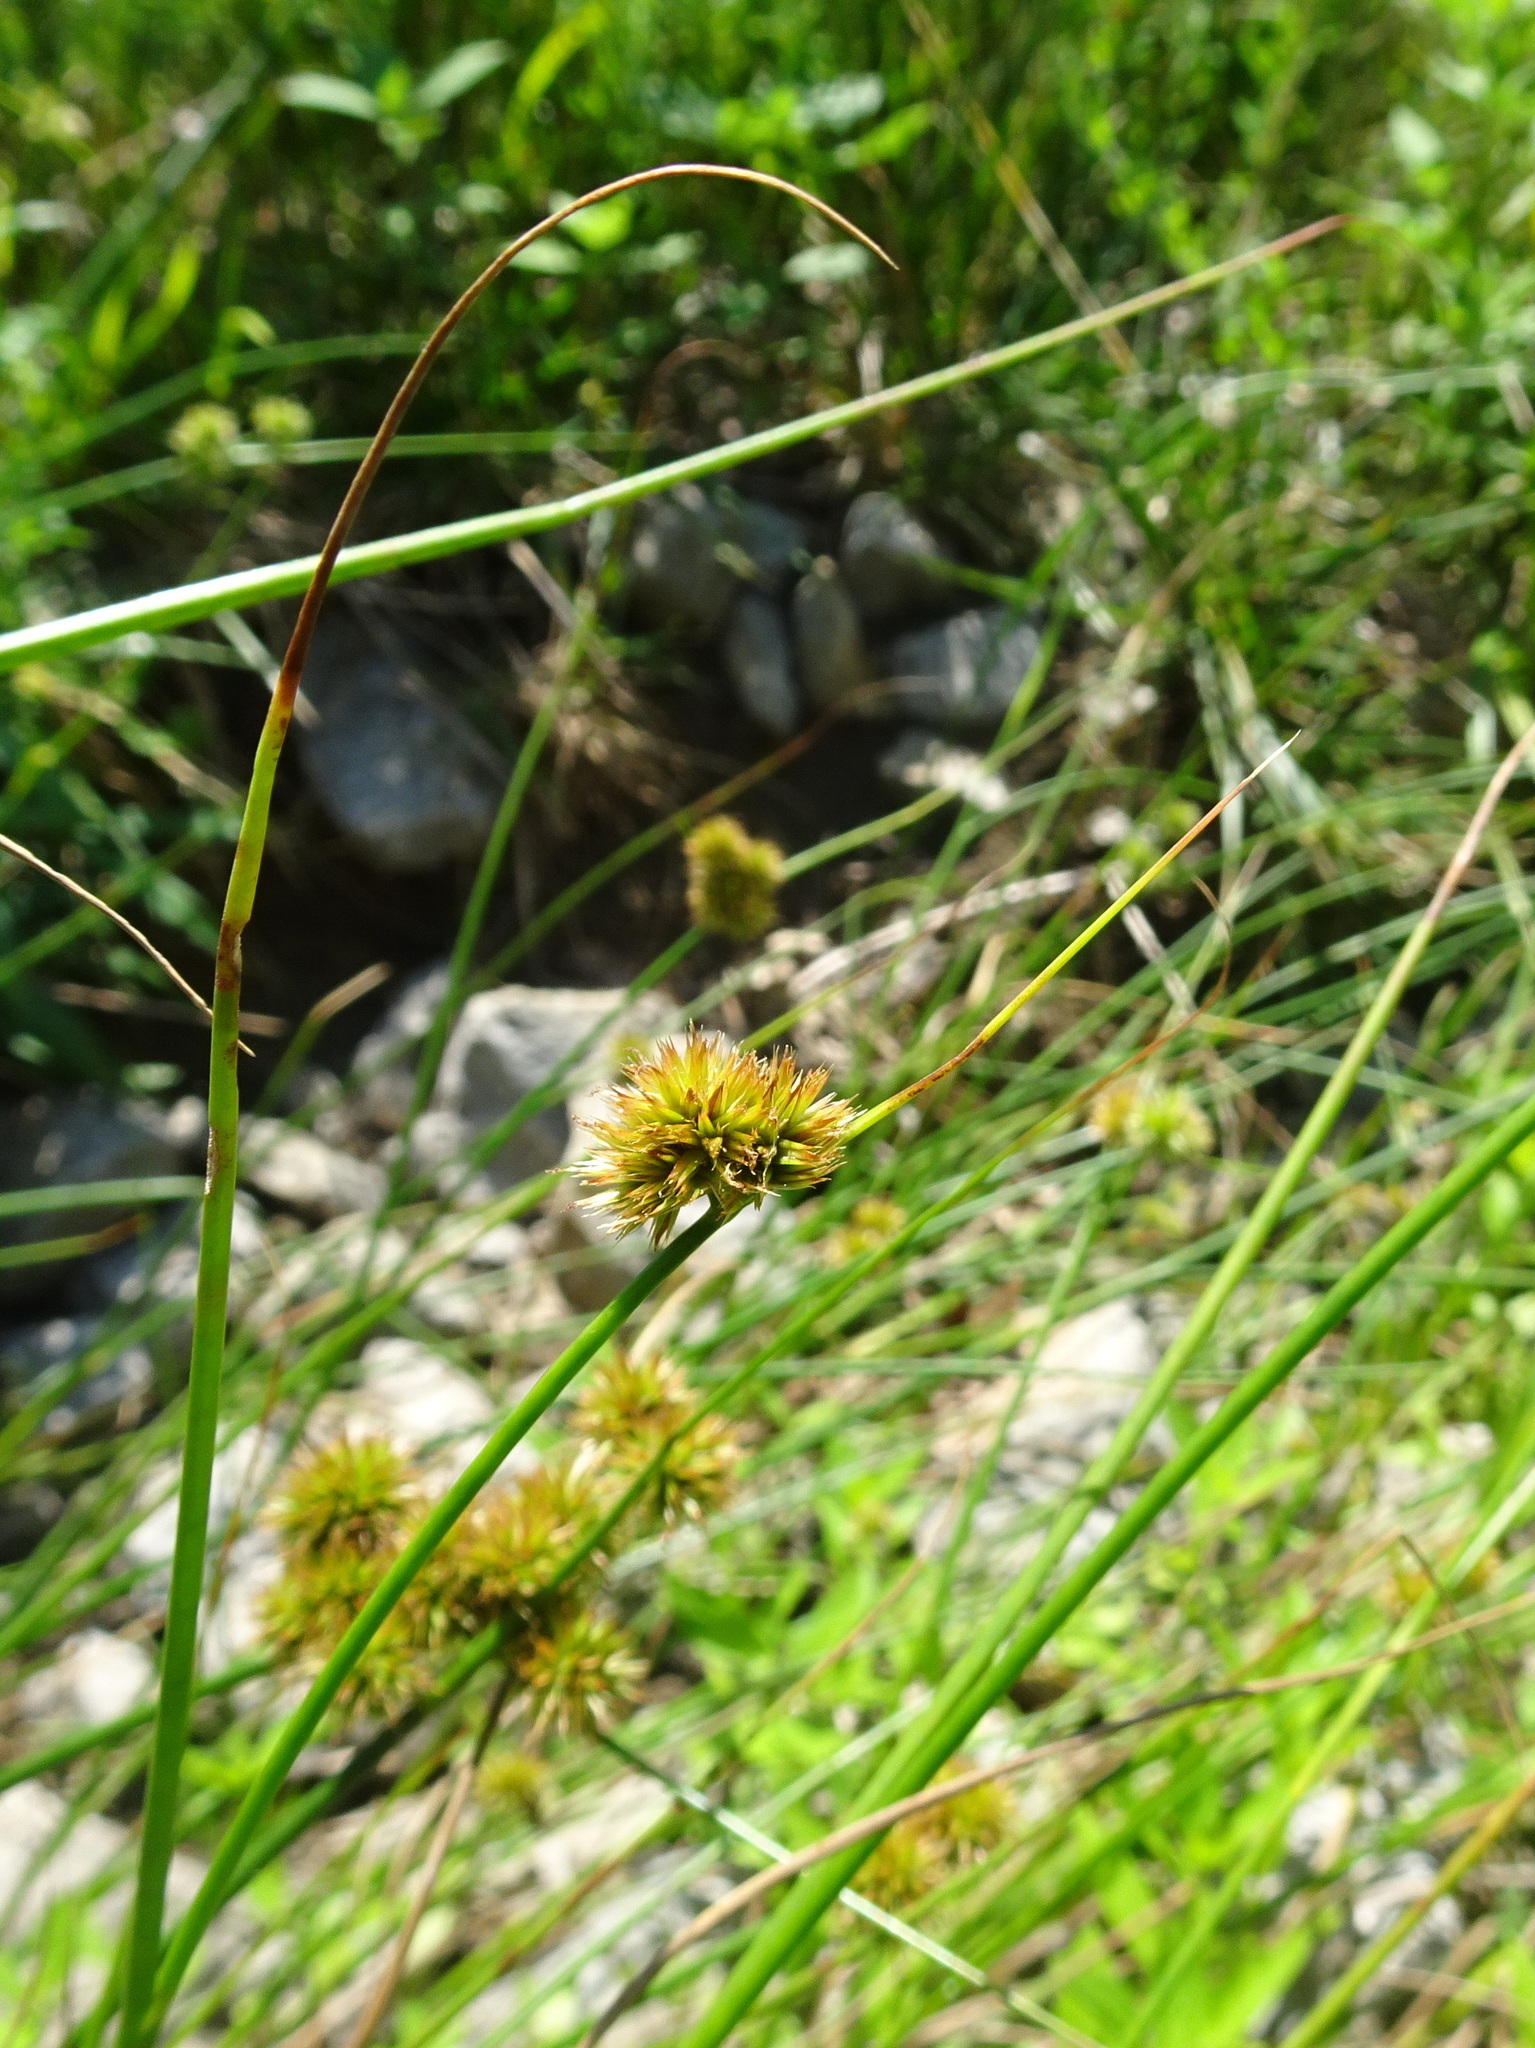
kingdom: Plantae
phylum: Tracheophyta
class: Liliopsida
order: Poales
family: Juncaceae
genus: Juncus
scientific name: Juncus torreyi
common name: Torrey's rush
